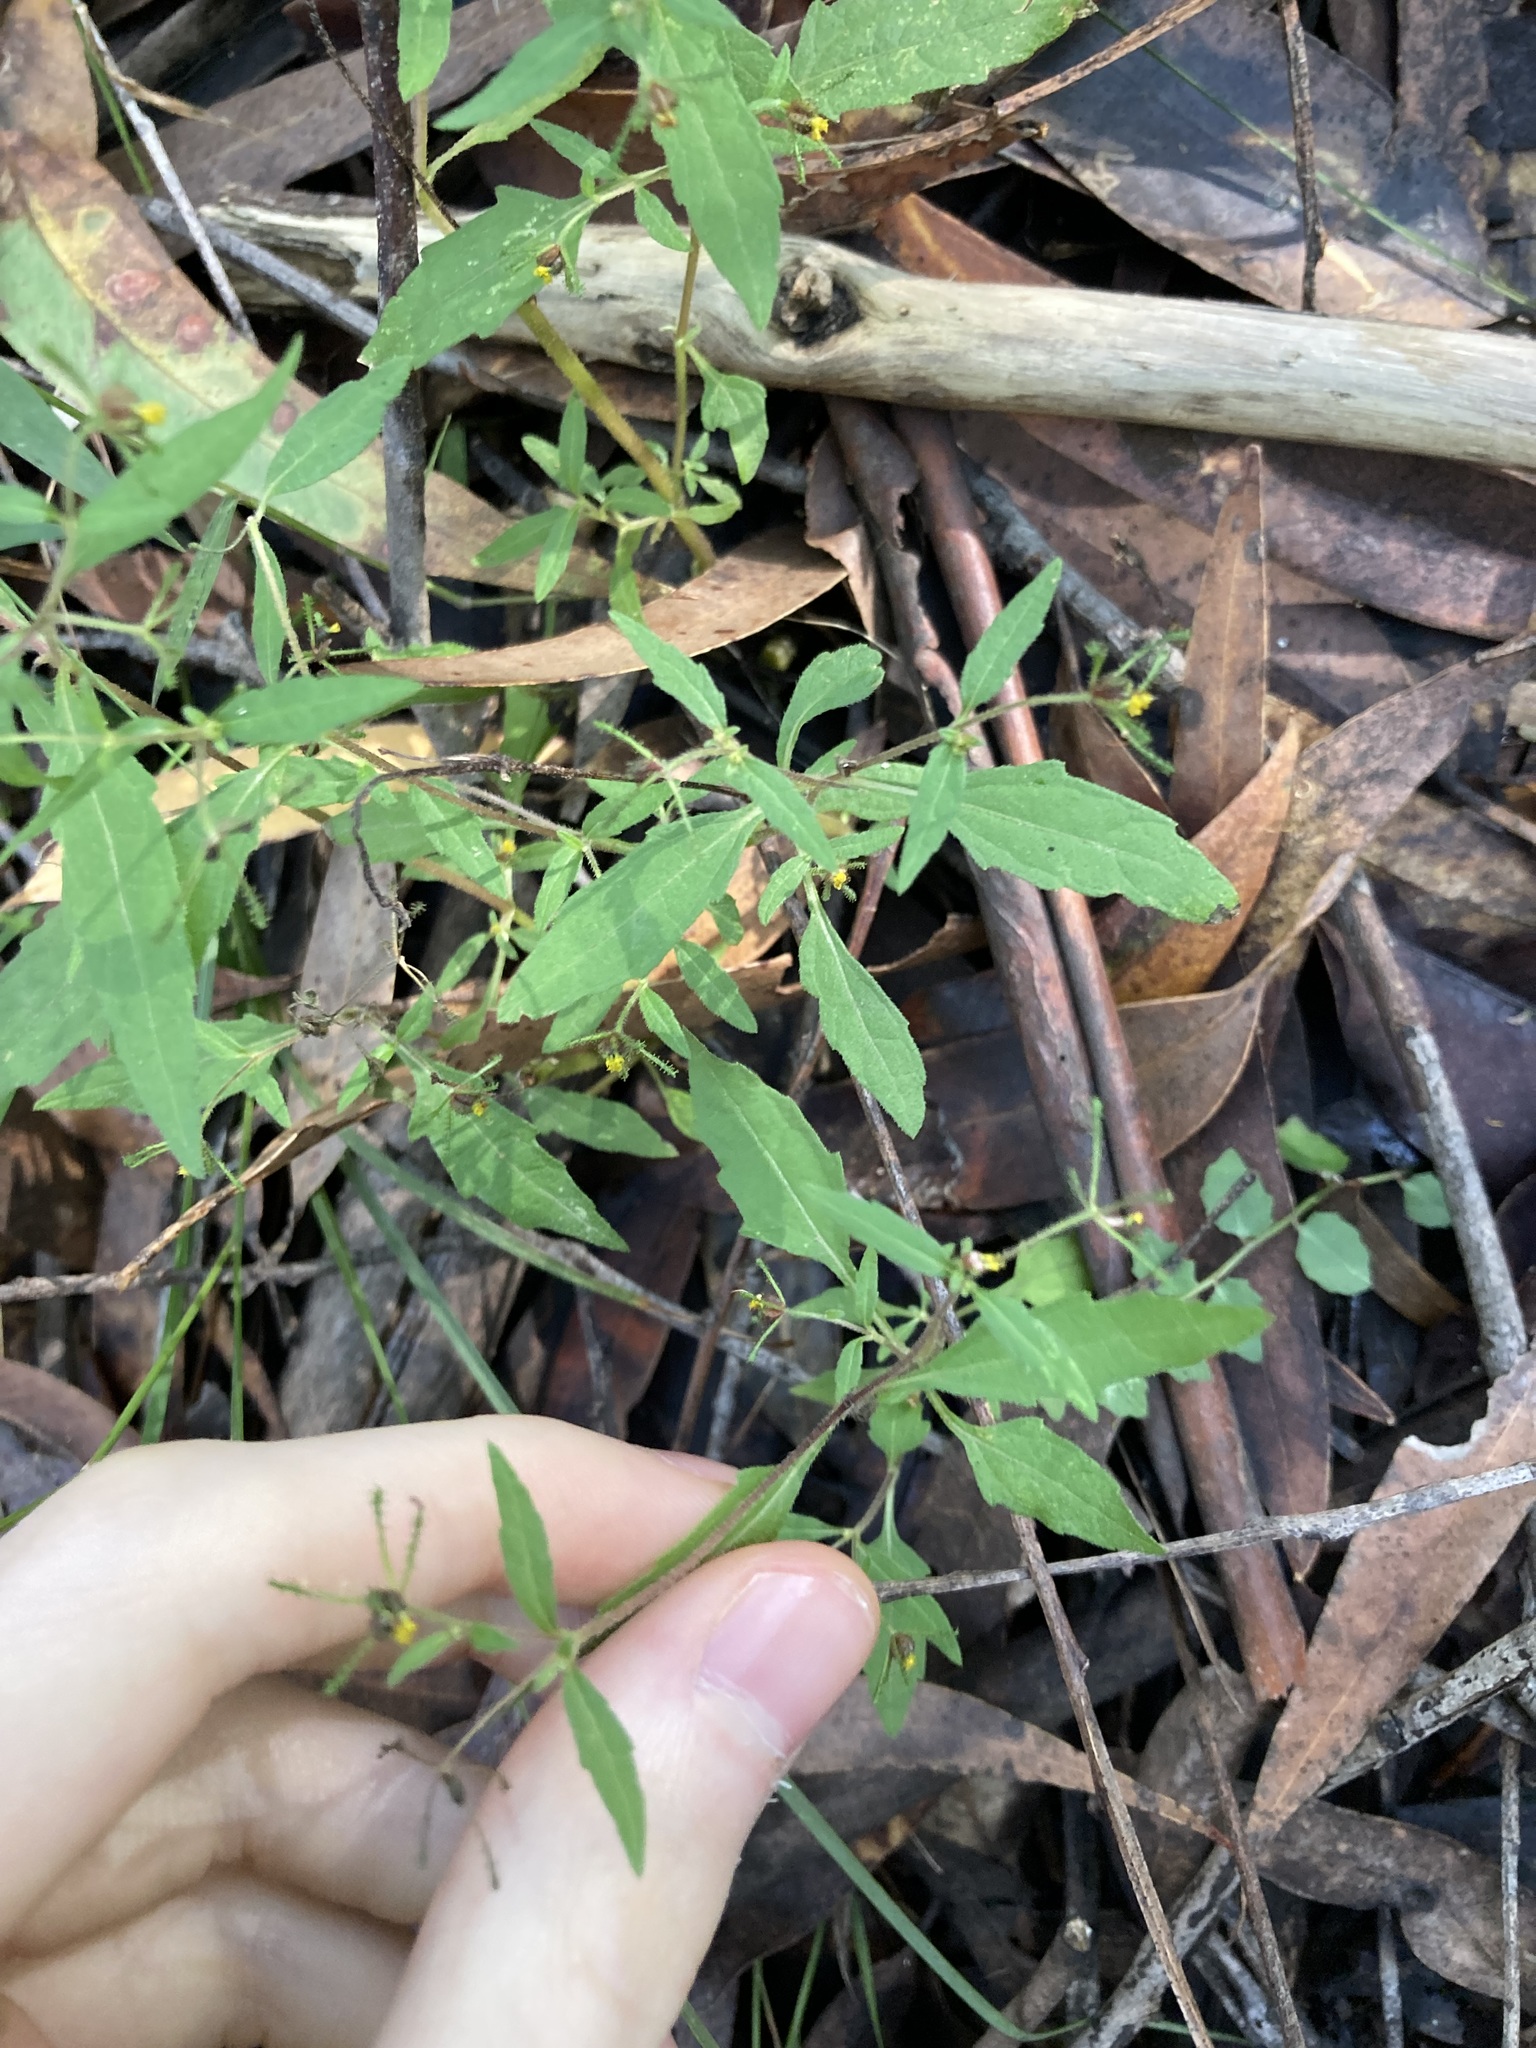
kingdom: Plantae
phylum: Tracheophyta
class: Magnoliopsida
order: Asterales
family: Asteraceae
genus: Sigesbeckia
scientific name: Sigesbeckia orientalis
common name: Eastern st paul's-wort
